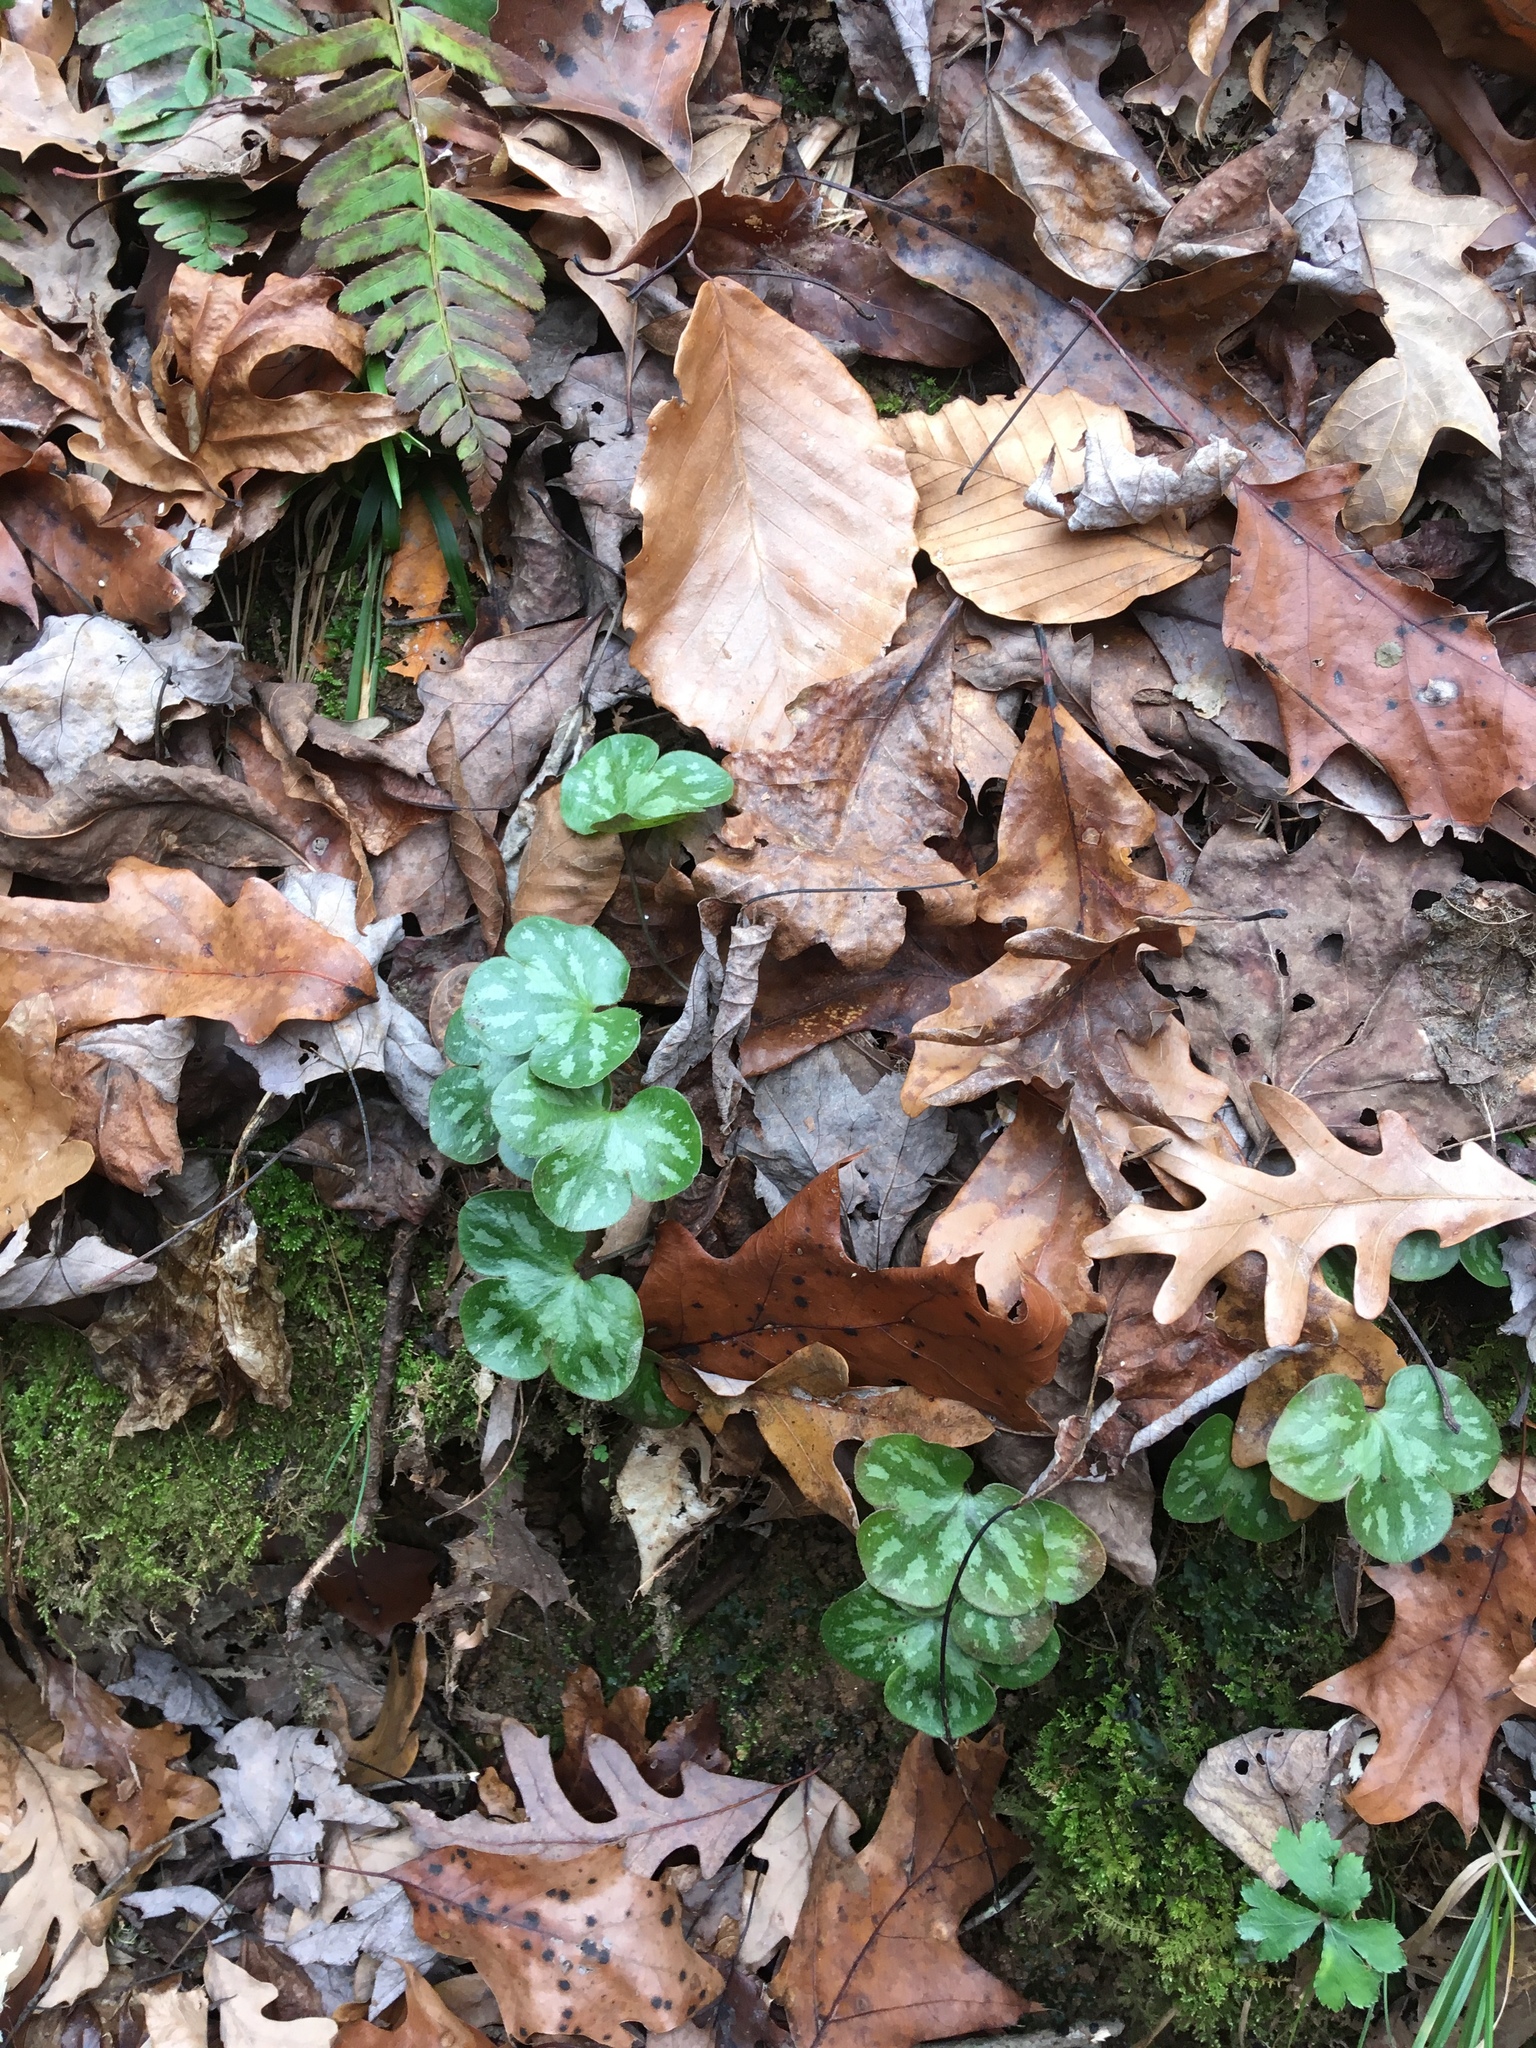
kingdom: Plantae
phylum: Tracheophyta
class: Magnoliopsida
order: Ranunculales
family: Ranunculaceae
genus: Hepatica
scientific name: Hepatica americana
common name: American hepatica
